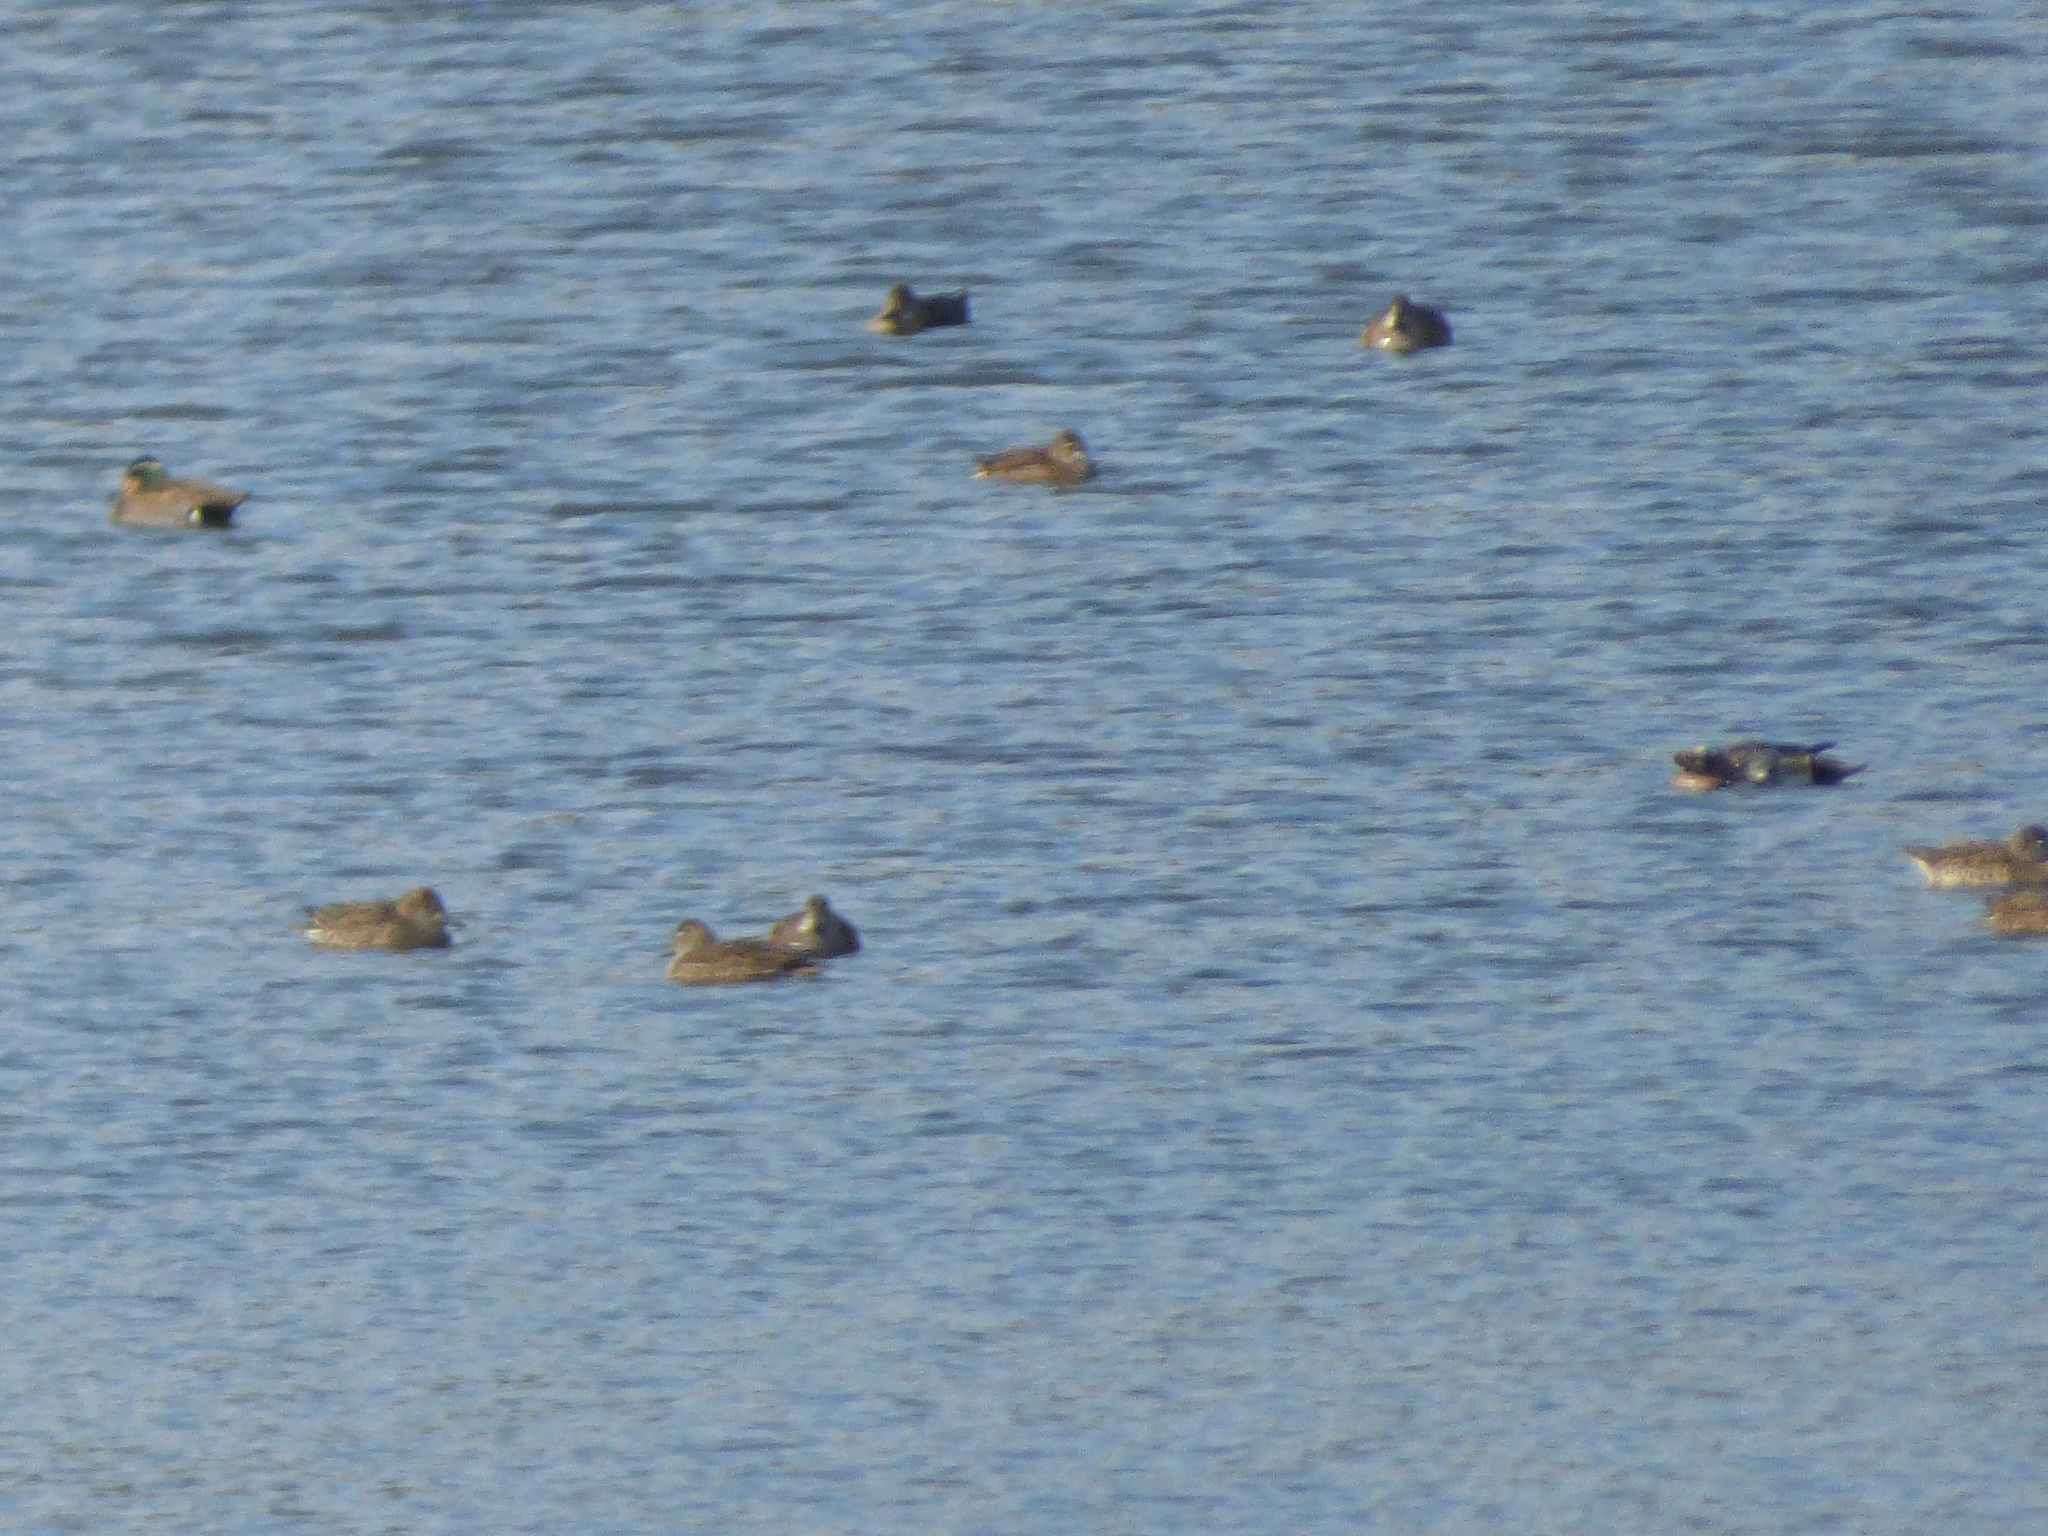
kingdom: Animalia
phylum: Chordata
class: Aves
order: Anseriformes
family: Anatidae
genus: Sibirionetta
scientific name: Sibirionetta formosa
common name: Baikal teal
